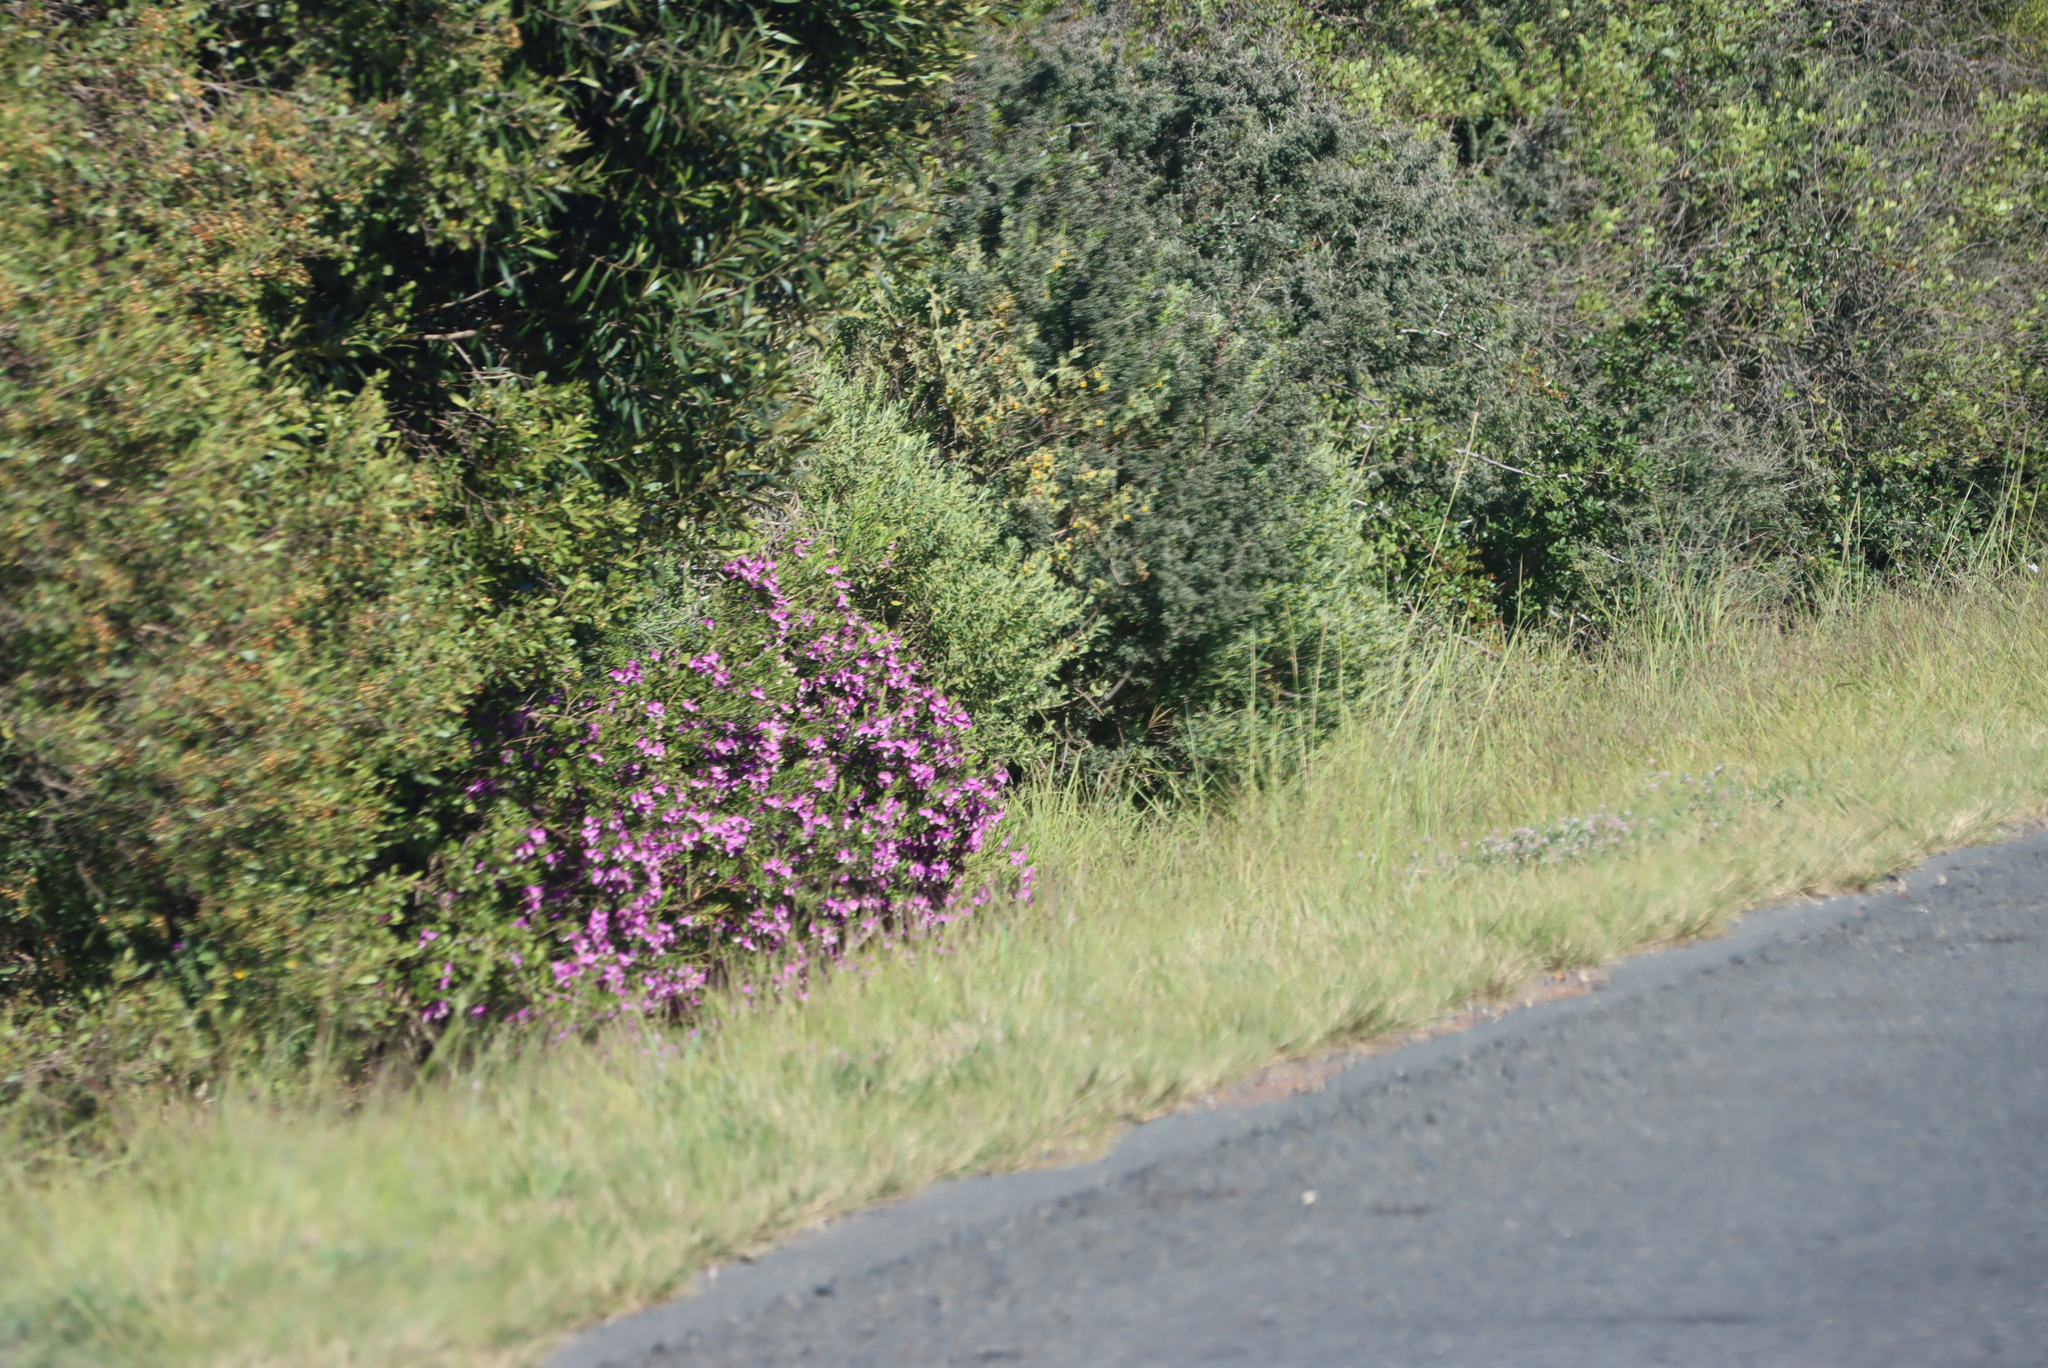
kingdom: Plantae
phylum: Tracheophyta
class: Magnoliopsida
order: Fabales
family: Polygalaceae
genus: Polygala
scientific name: Polygala myrtifolia
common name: Myrtle-leaf milkwort
